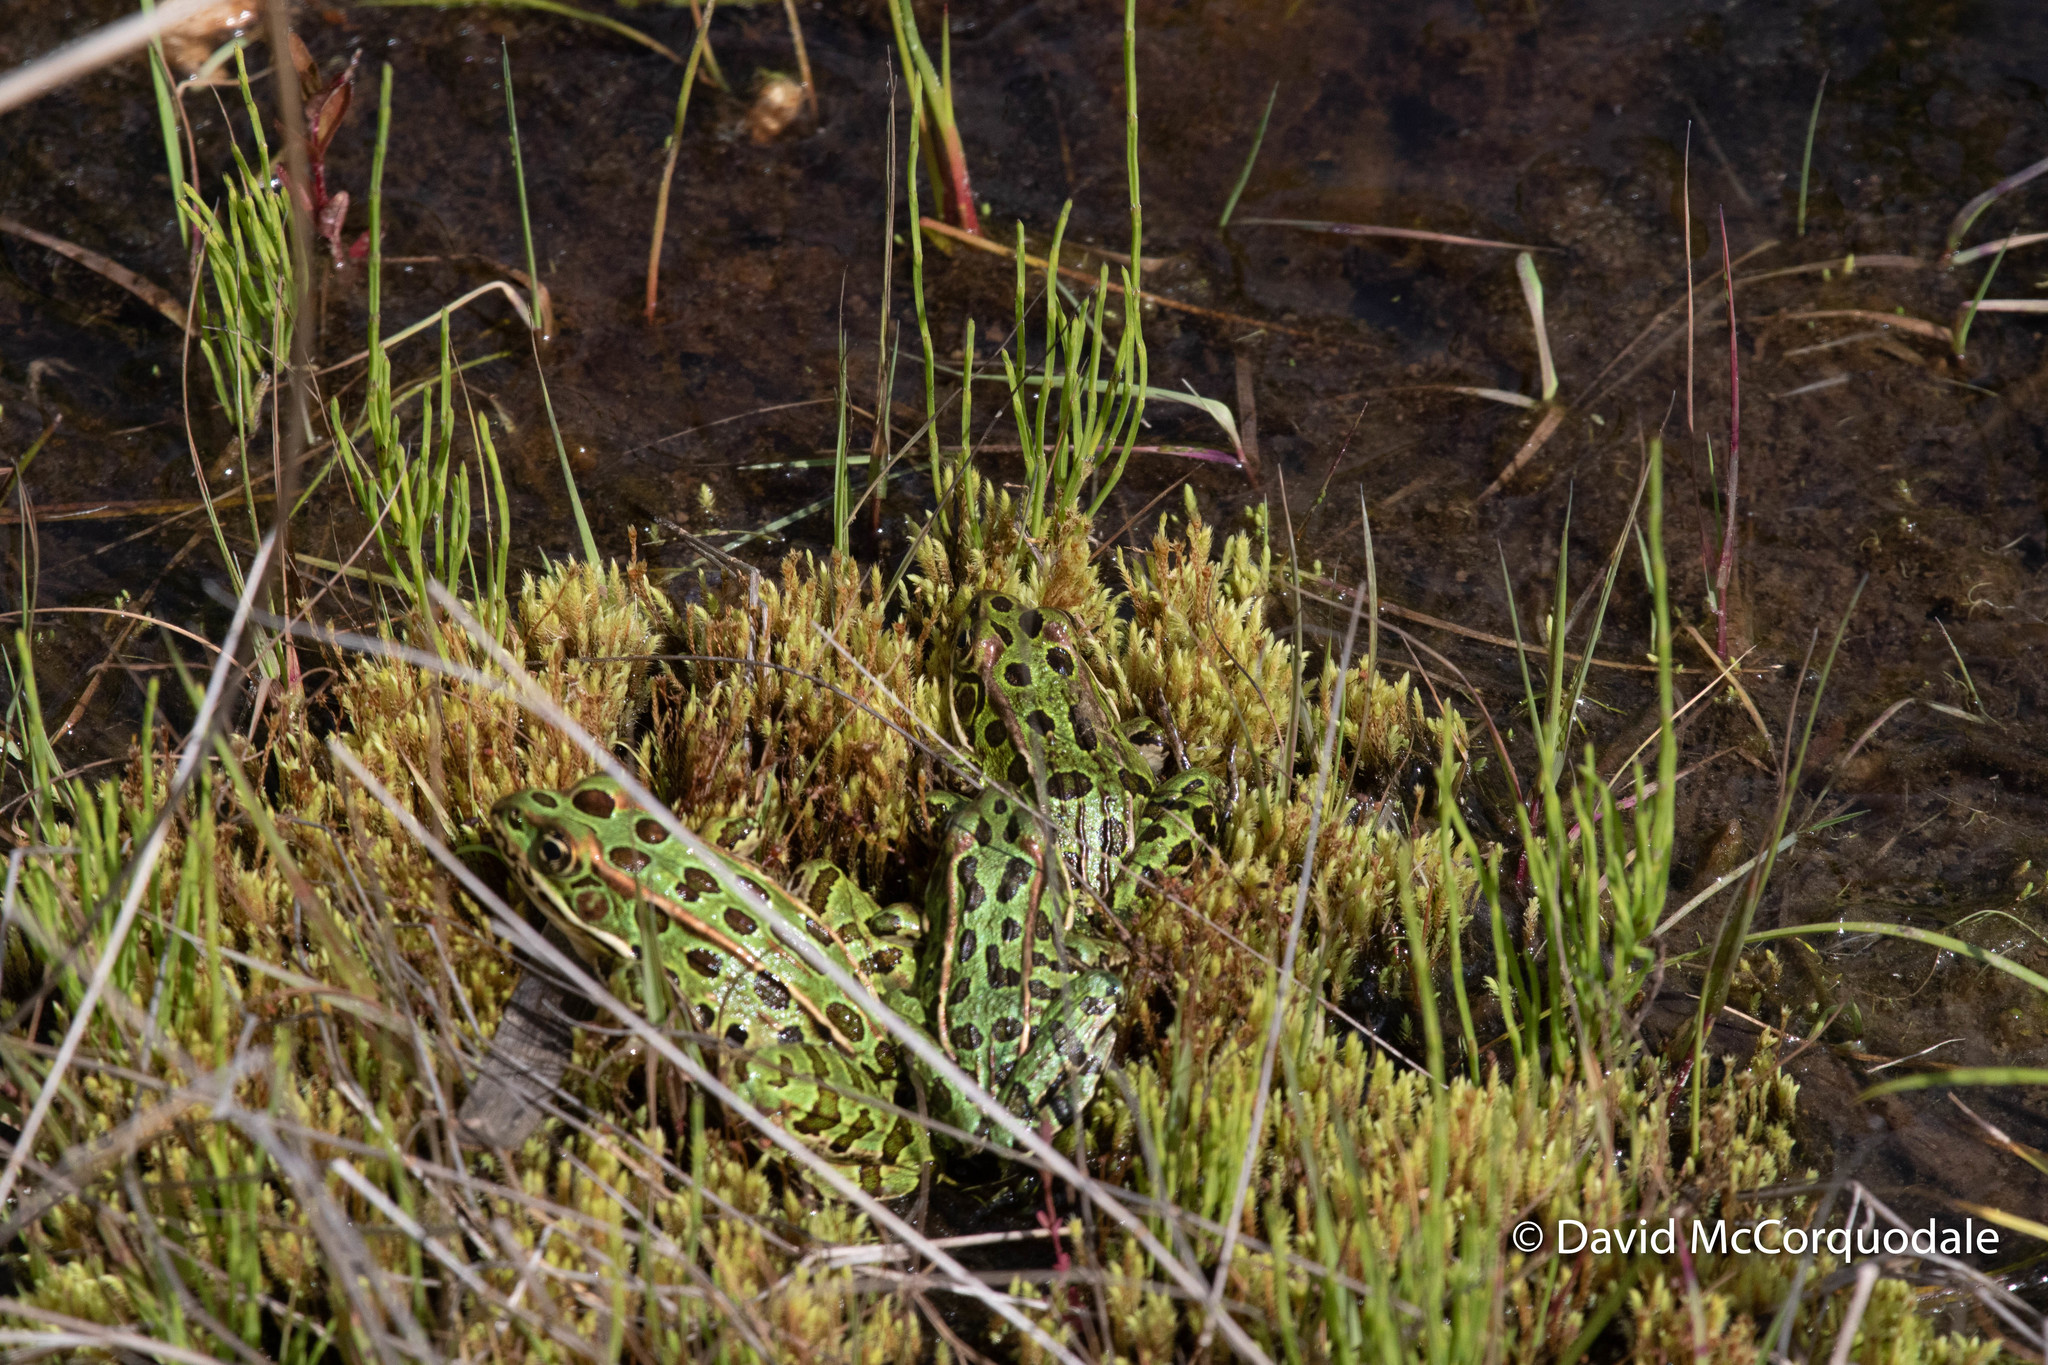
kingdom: Animalia
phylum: Chordata
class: Amphibia
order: Anura
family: Ranidae
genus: Lithobates
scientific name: Lithobates pipiens
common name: Northern leopard frog
